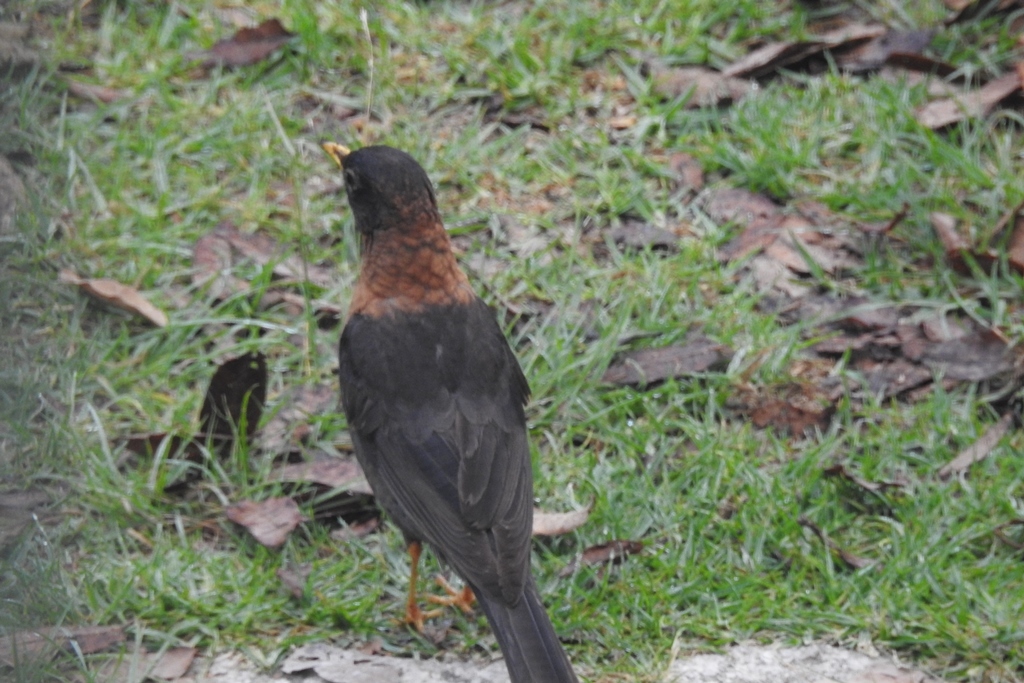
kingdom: Animalia
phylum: Chordata
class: Aves
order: Passeriformes
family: Turdidae
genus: Turdus
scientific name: Turdus rufitorques
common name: Rufous-collared thrush
